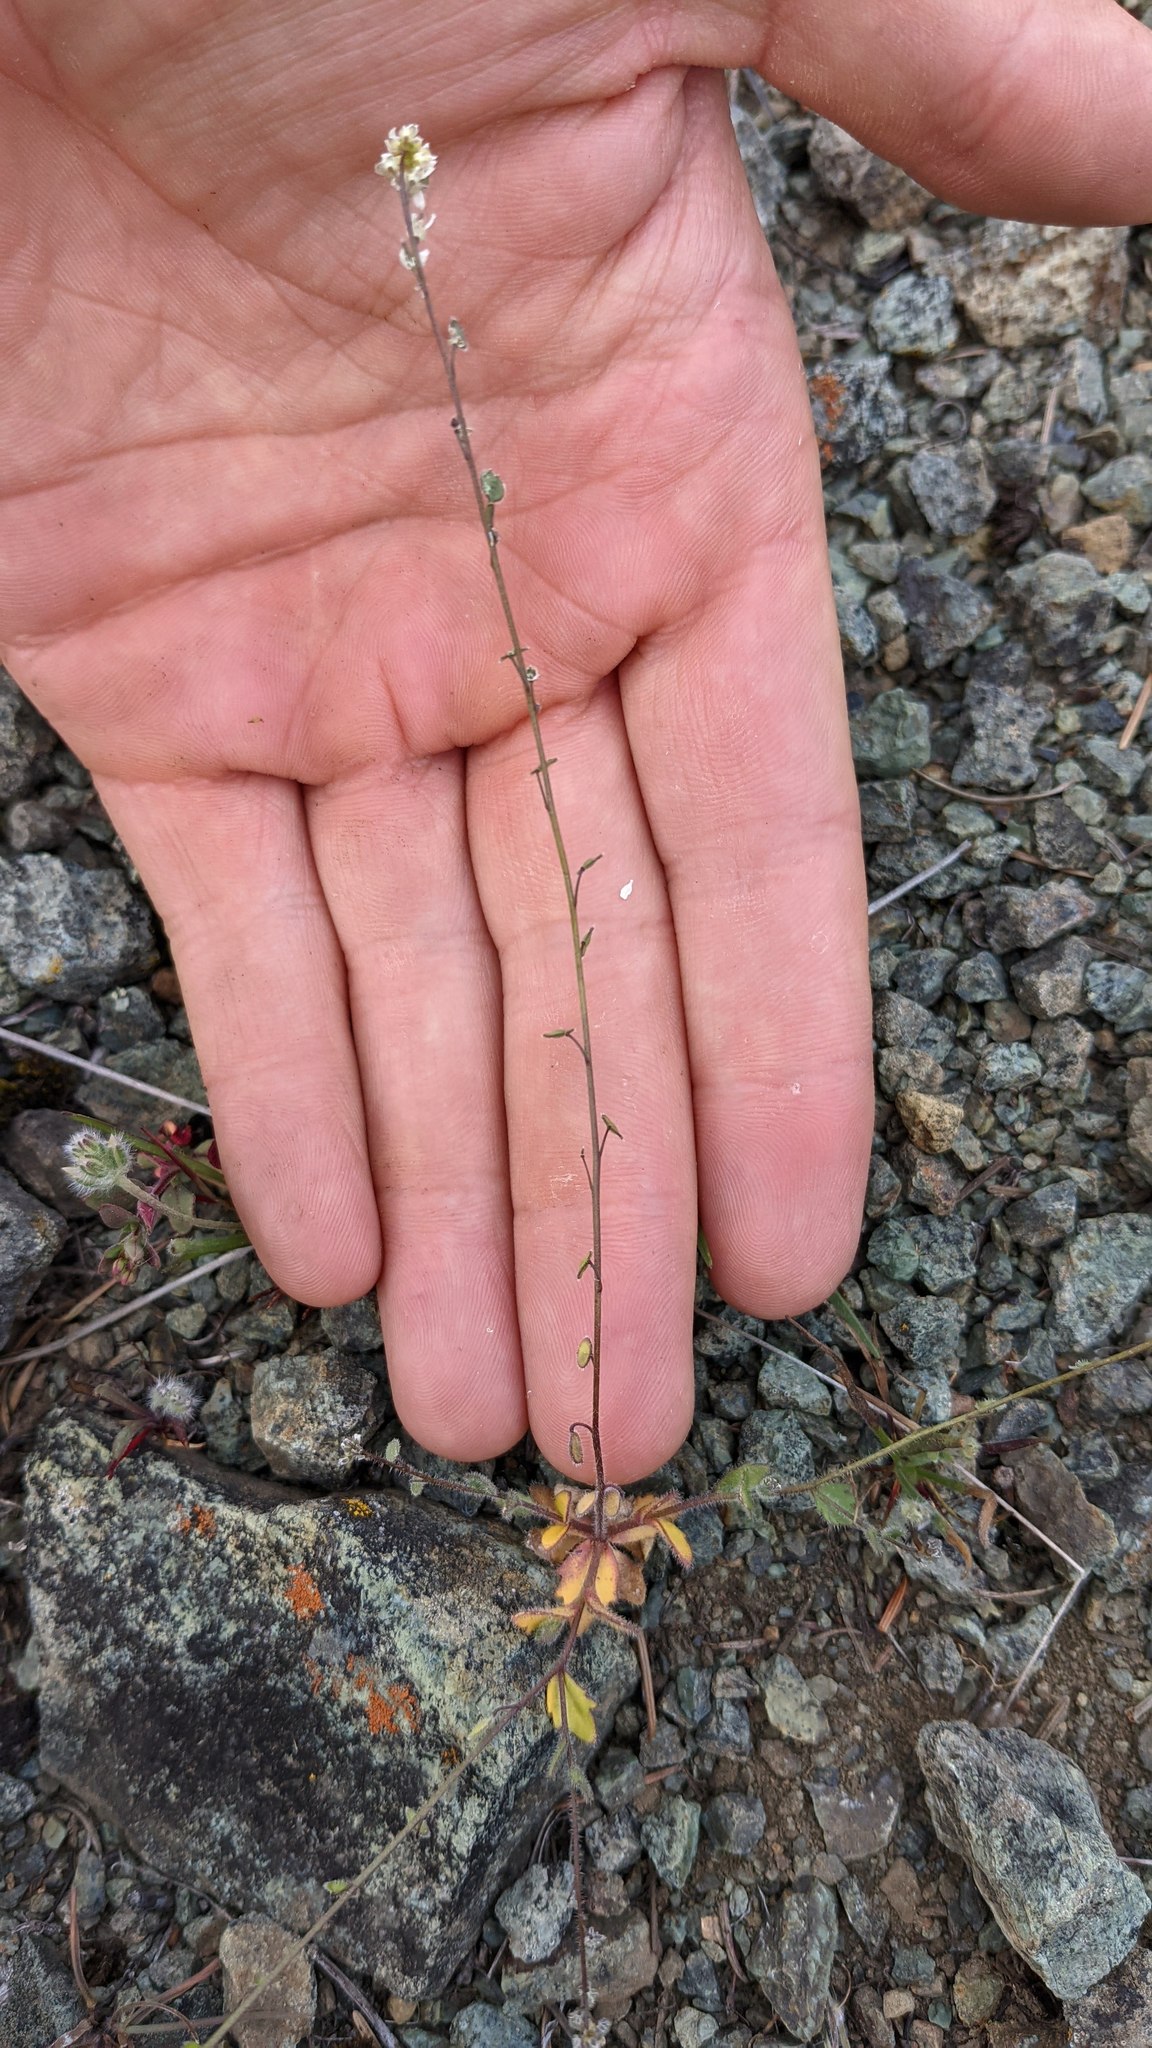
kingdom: Plantae
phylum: Tracheophyta
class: Magnoliopsida
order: Brassicales
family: Brassicaceae
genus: Athysanus
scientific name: Athysanus pusillus
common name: Common sandweed
